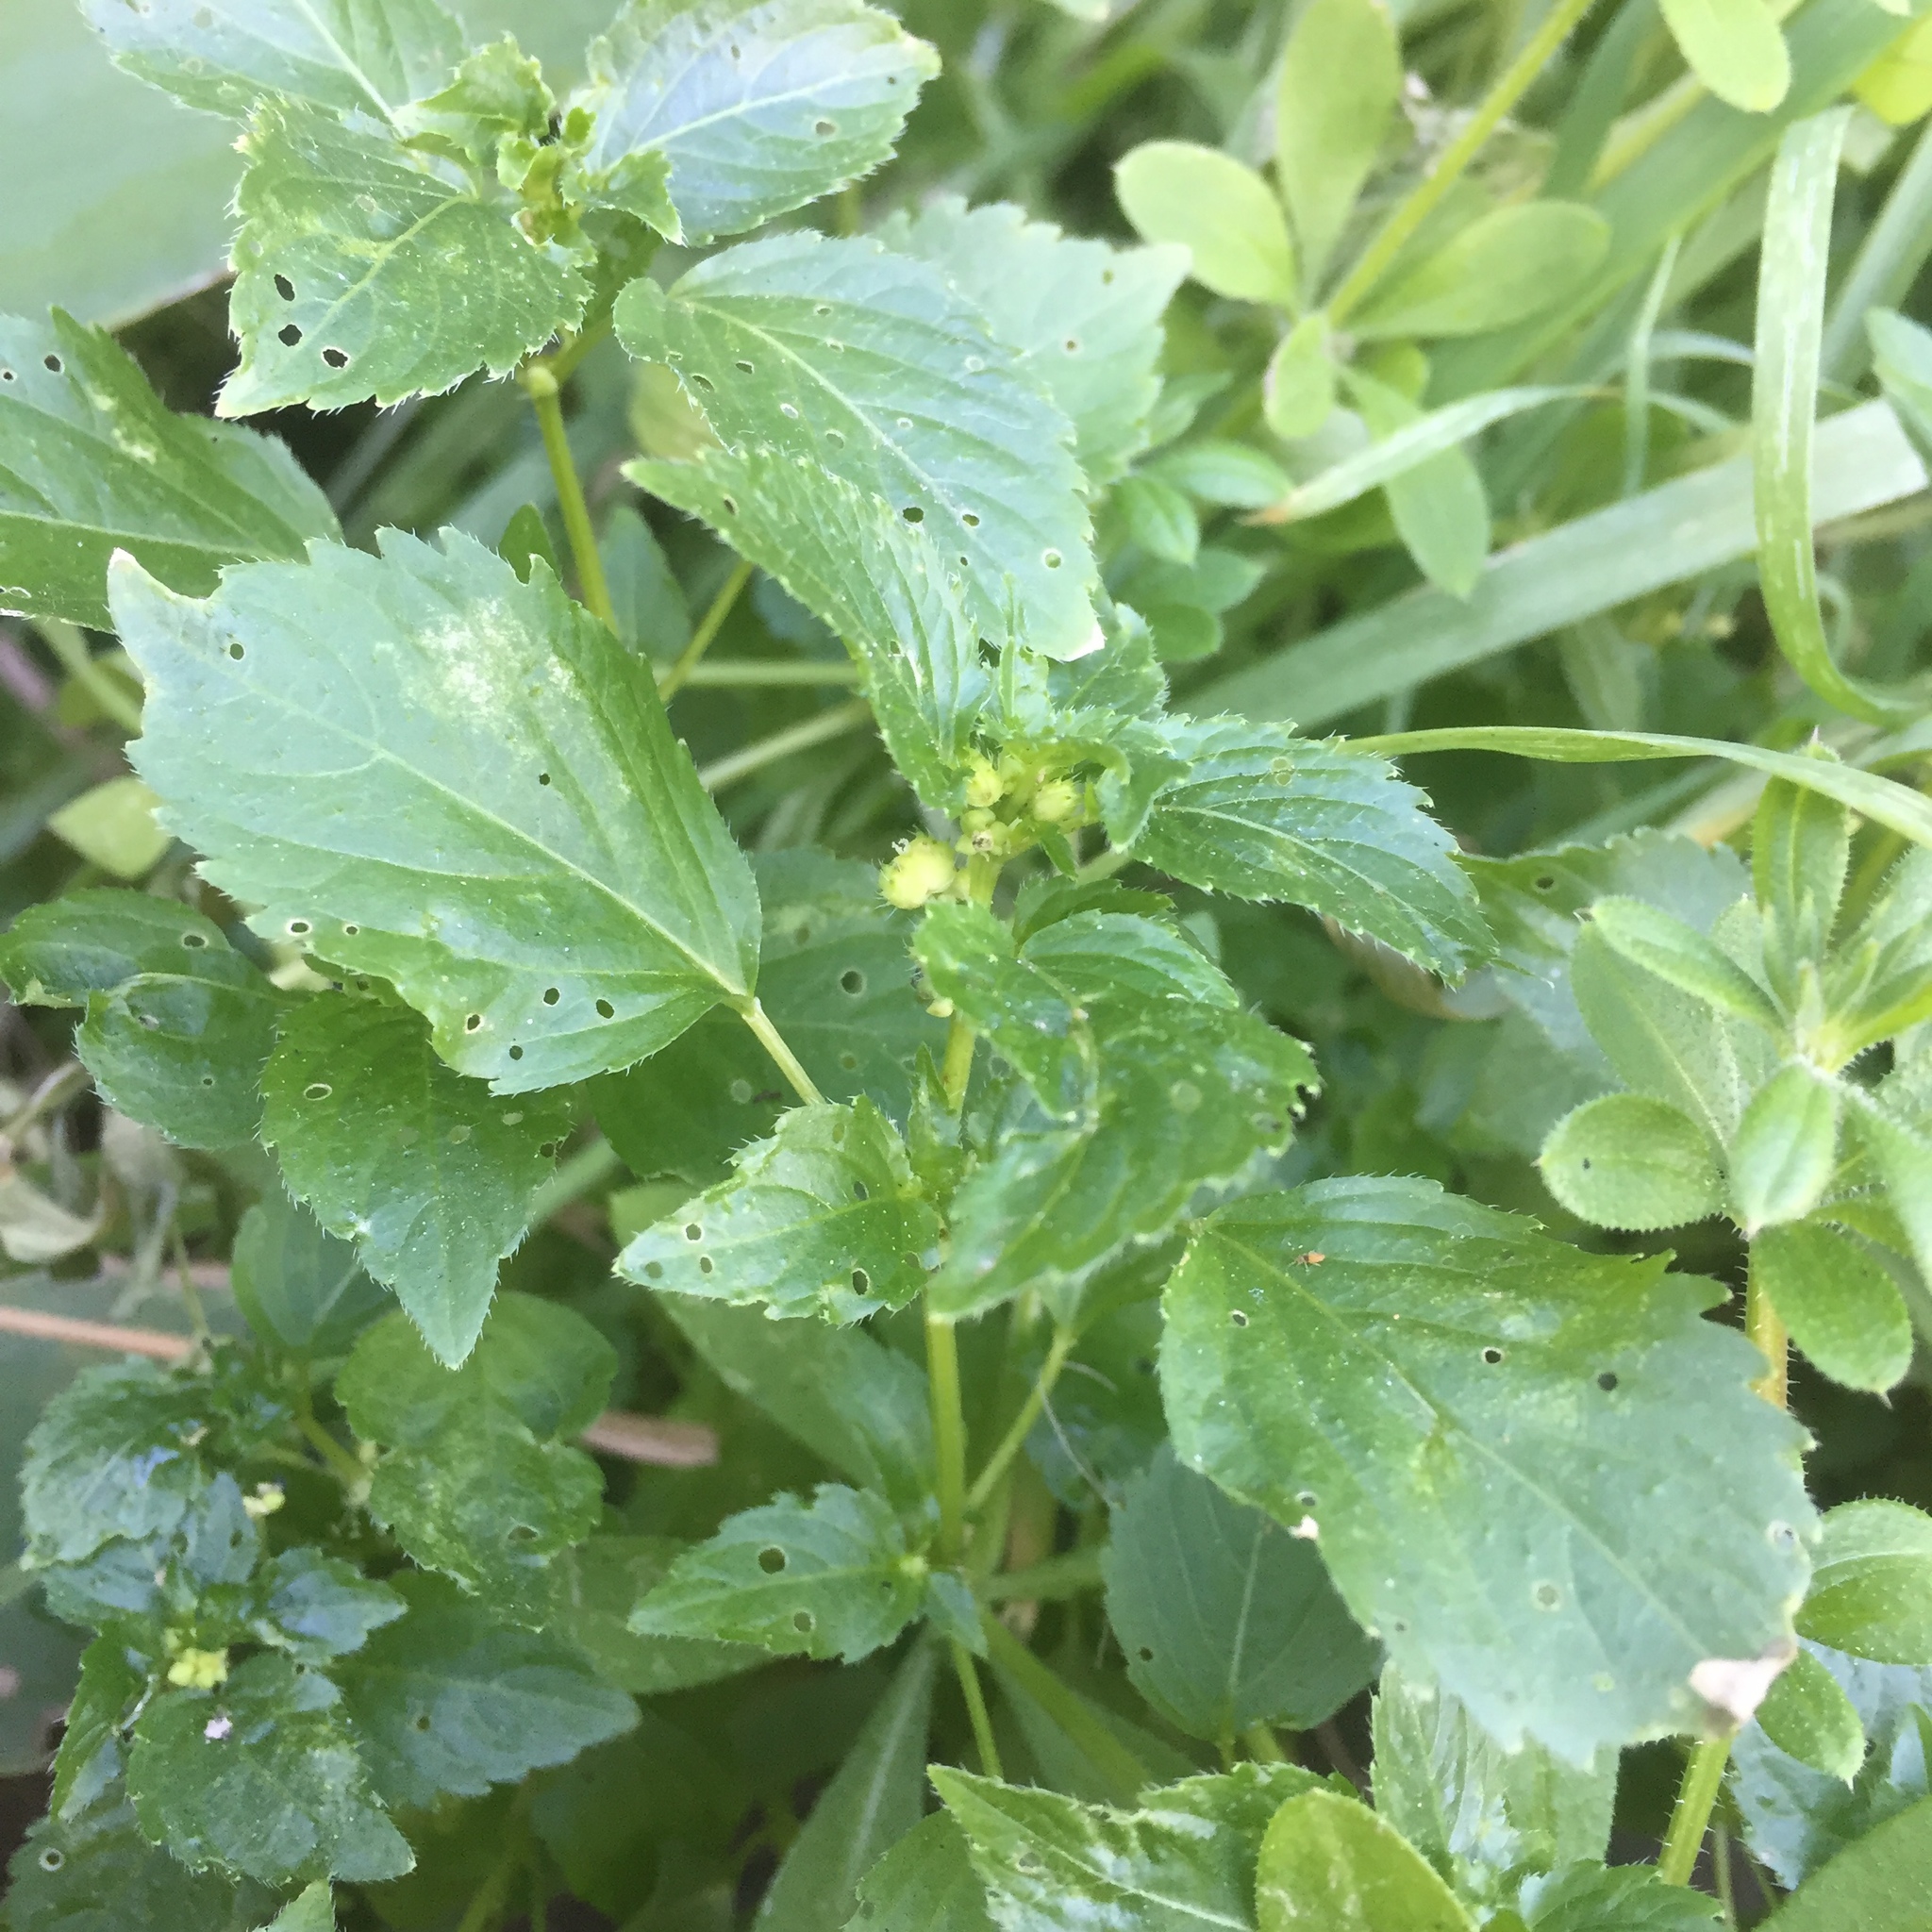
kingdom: Plantae
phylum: Tracheophyta
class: Magnoliopsida
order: Malpighiales
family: Euphorbiaceae
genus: Mercurialis
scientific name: Mercurialis annua
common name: Annual mercury
